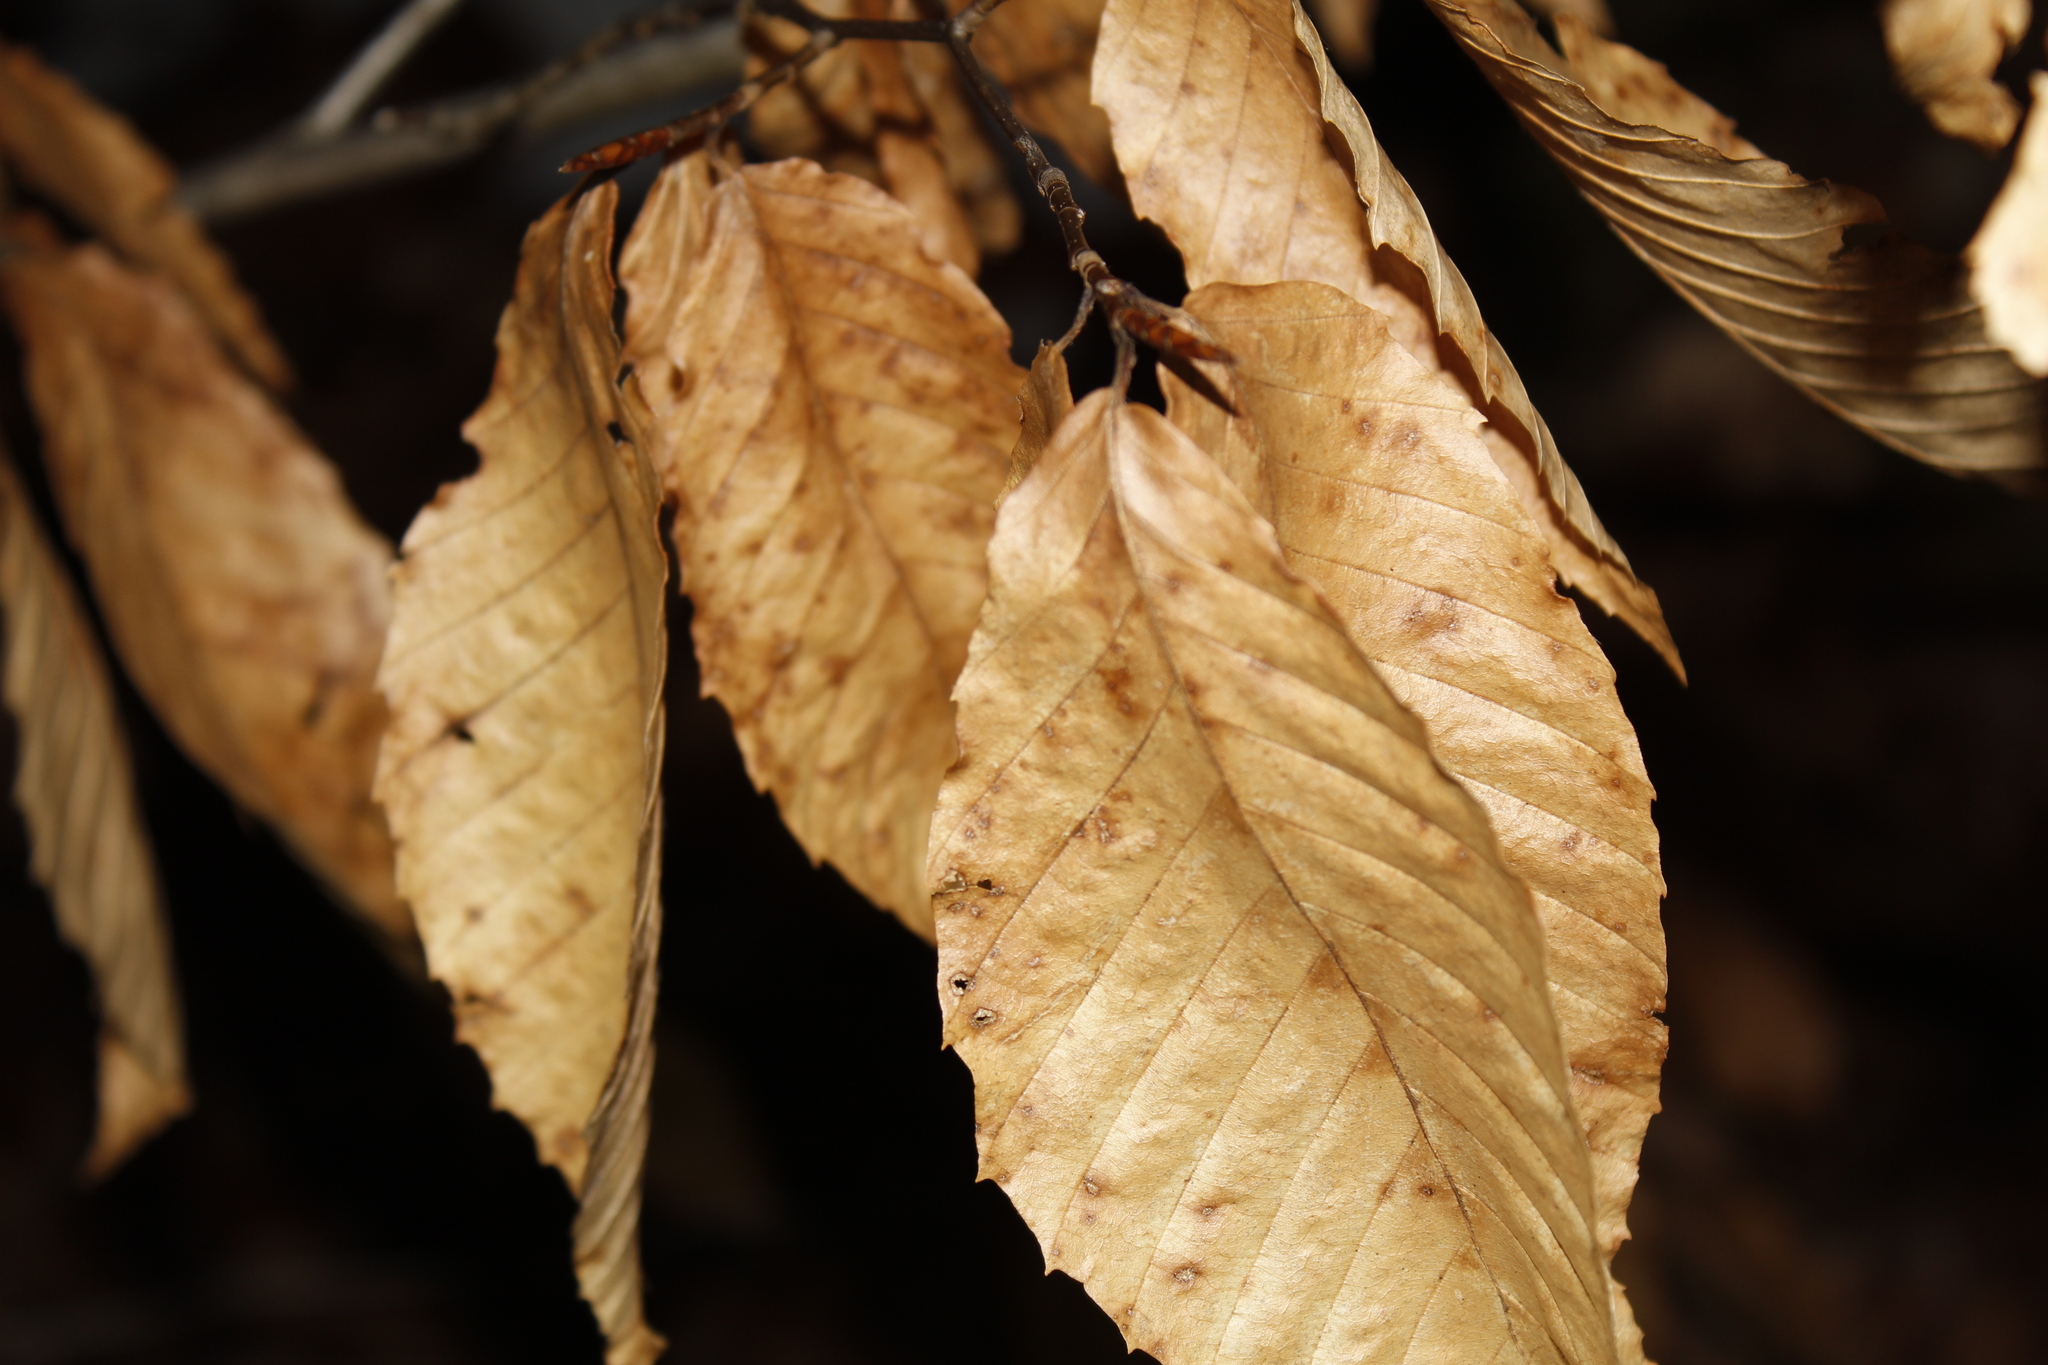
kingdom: Plantae
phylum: Tracheophyta
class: Magnoliopsida
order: Fagales
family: Fagaceae
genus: Fagus
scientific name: Fagus grandifolia
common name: American beech
